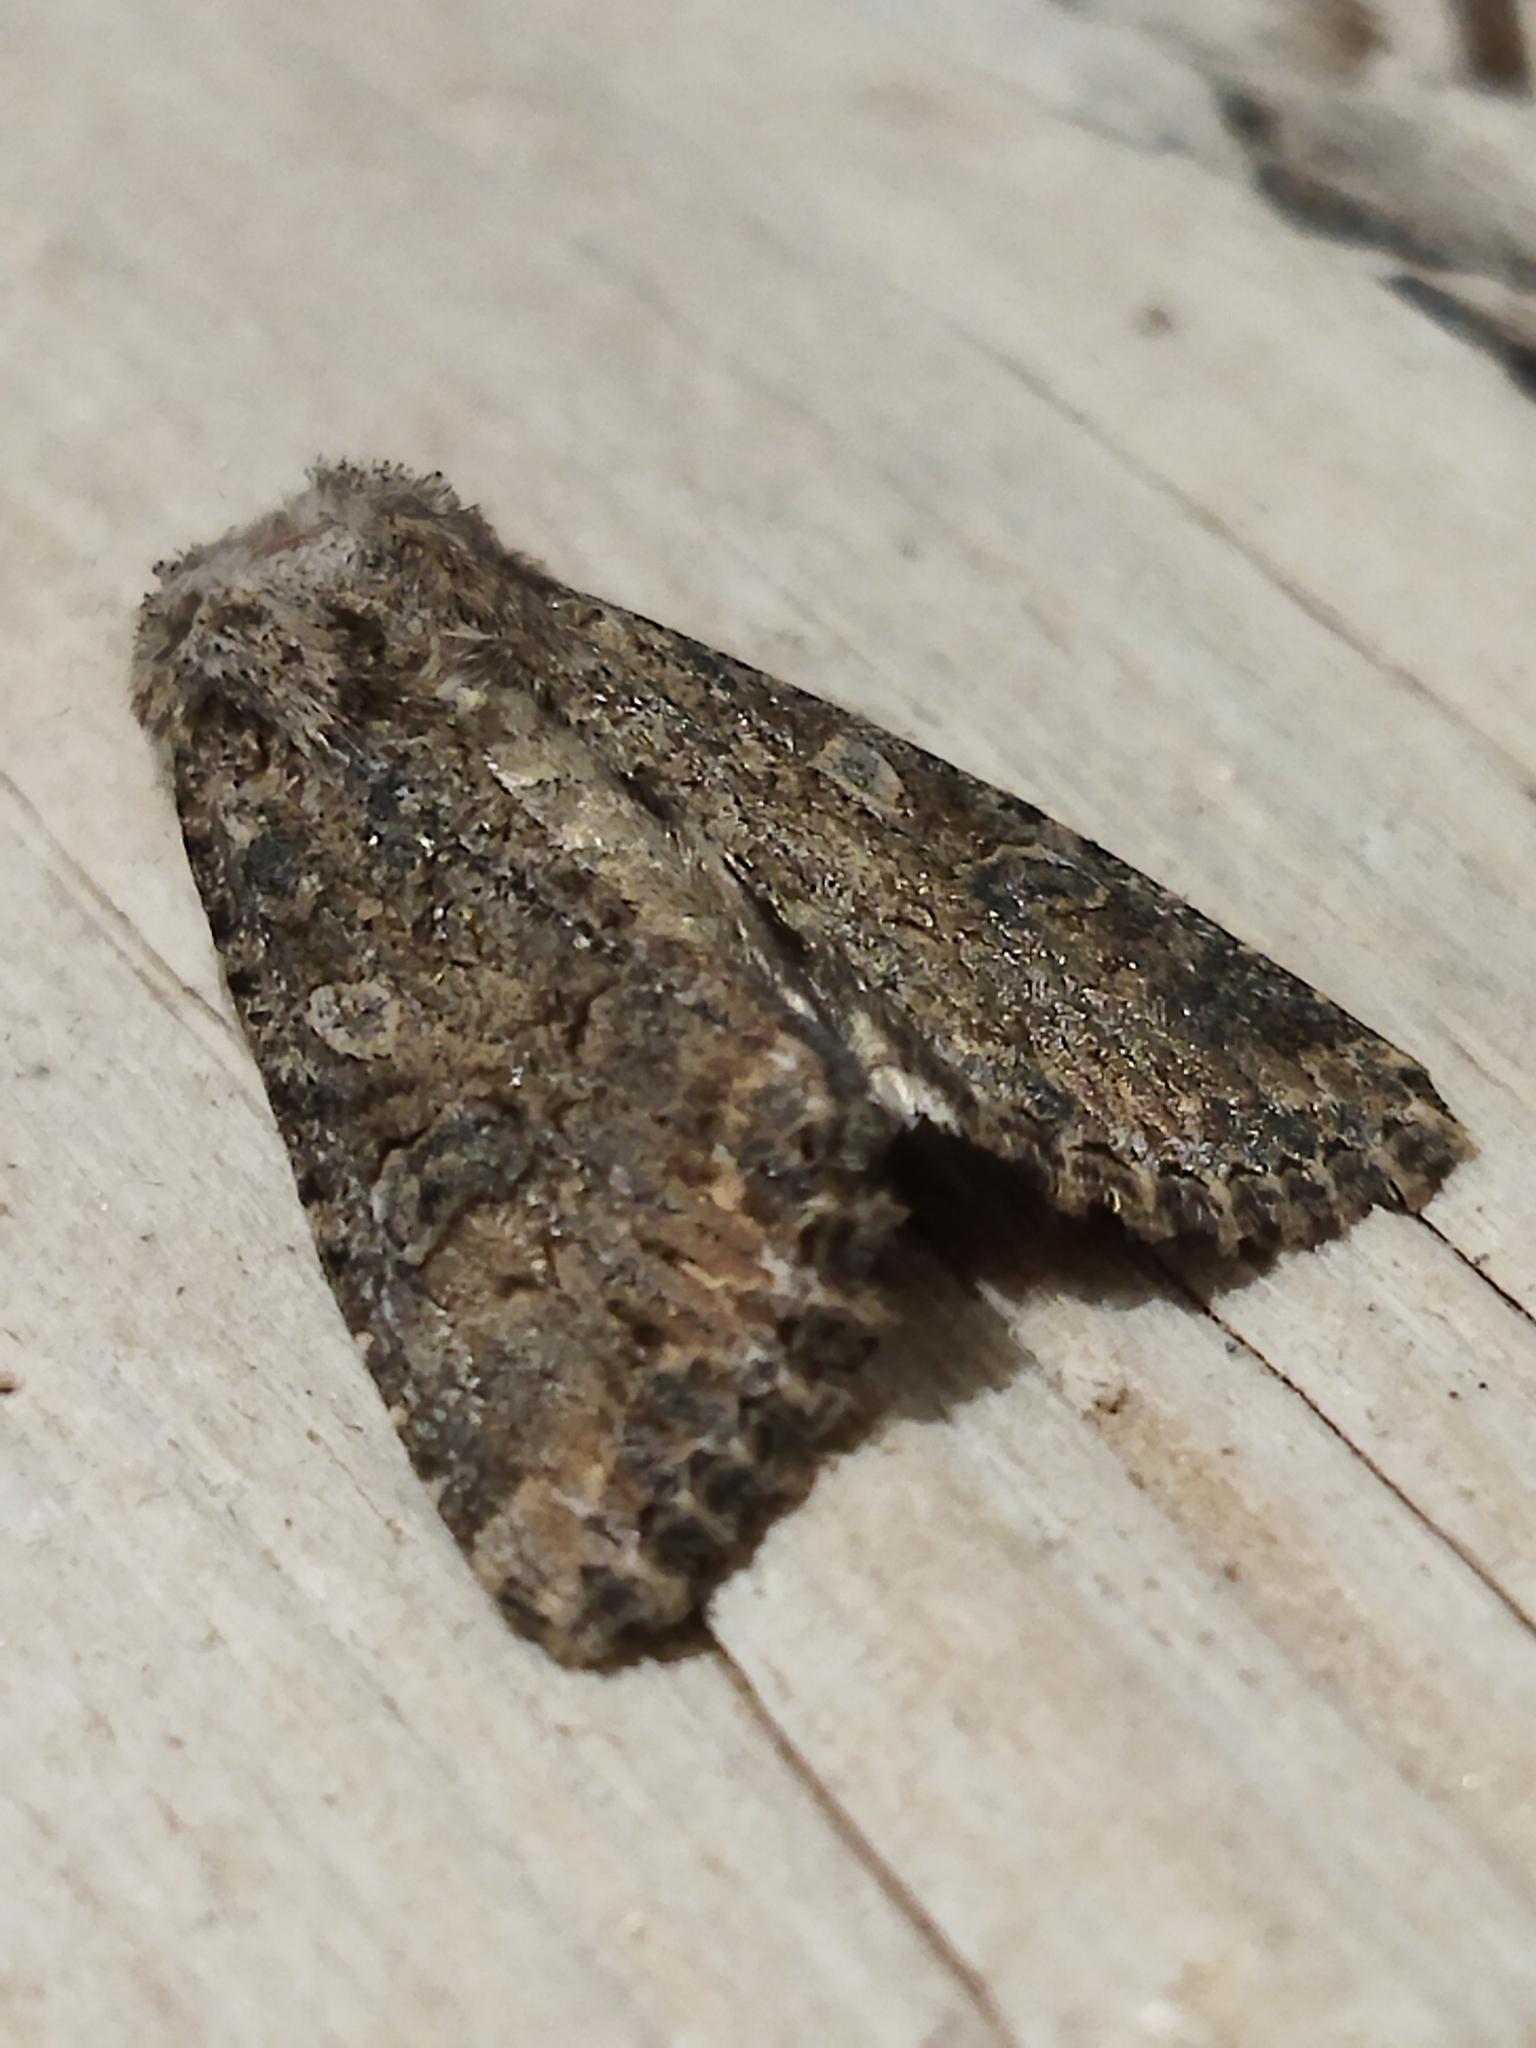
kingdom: Animalia
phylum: Arthropoda
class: Insecta
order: Lepidoptera
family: Noctuidae
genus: Anarta
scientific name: Anarta trifolii
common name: Clover cutworm moth
